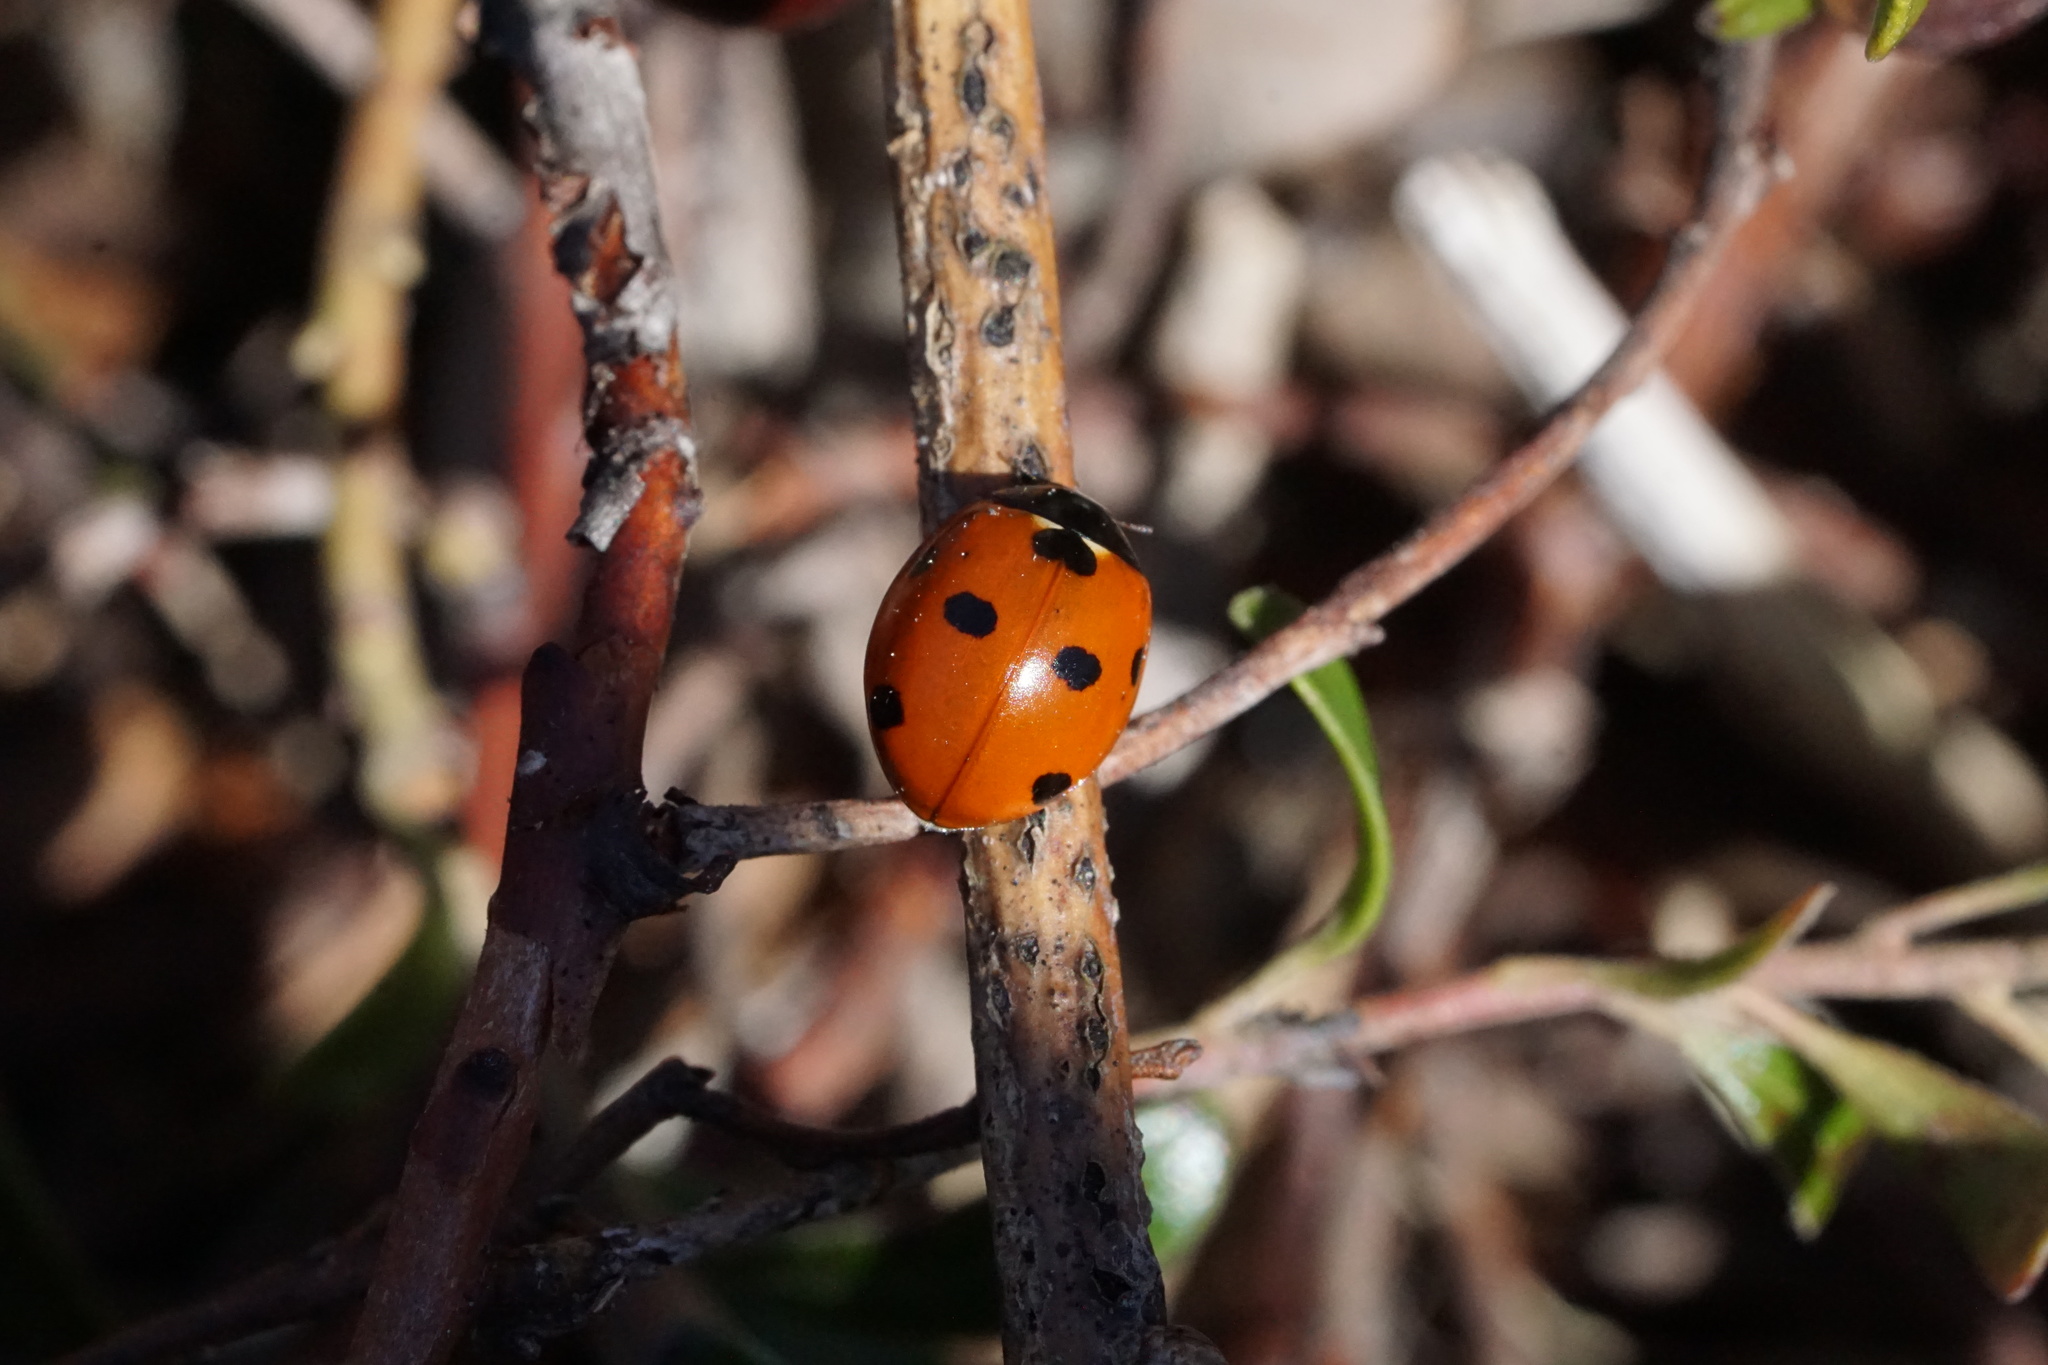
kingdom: Animalia
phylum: Arthropoda
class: Insecta
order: Coleoptera
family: Coccinellidae
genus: Coccinella
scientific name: Coccinella septempunctata
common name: Sevenspotted lady beetle
